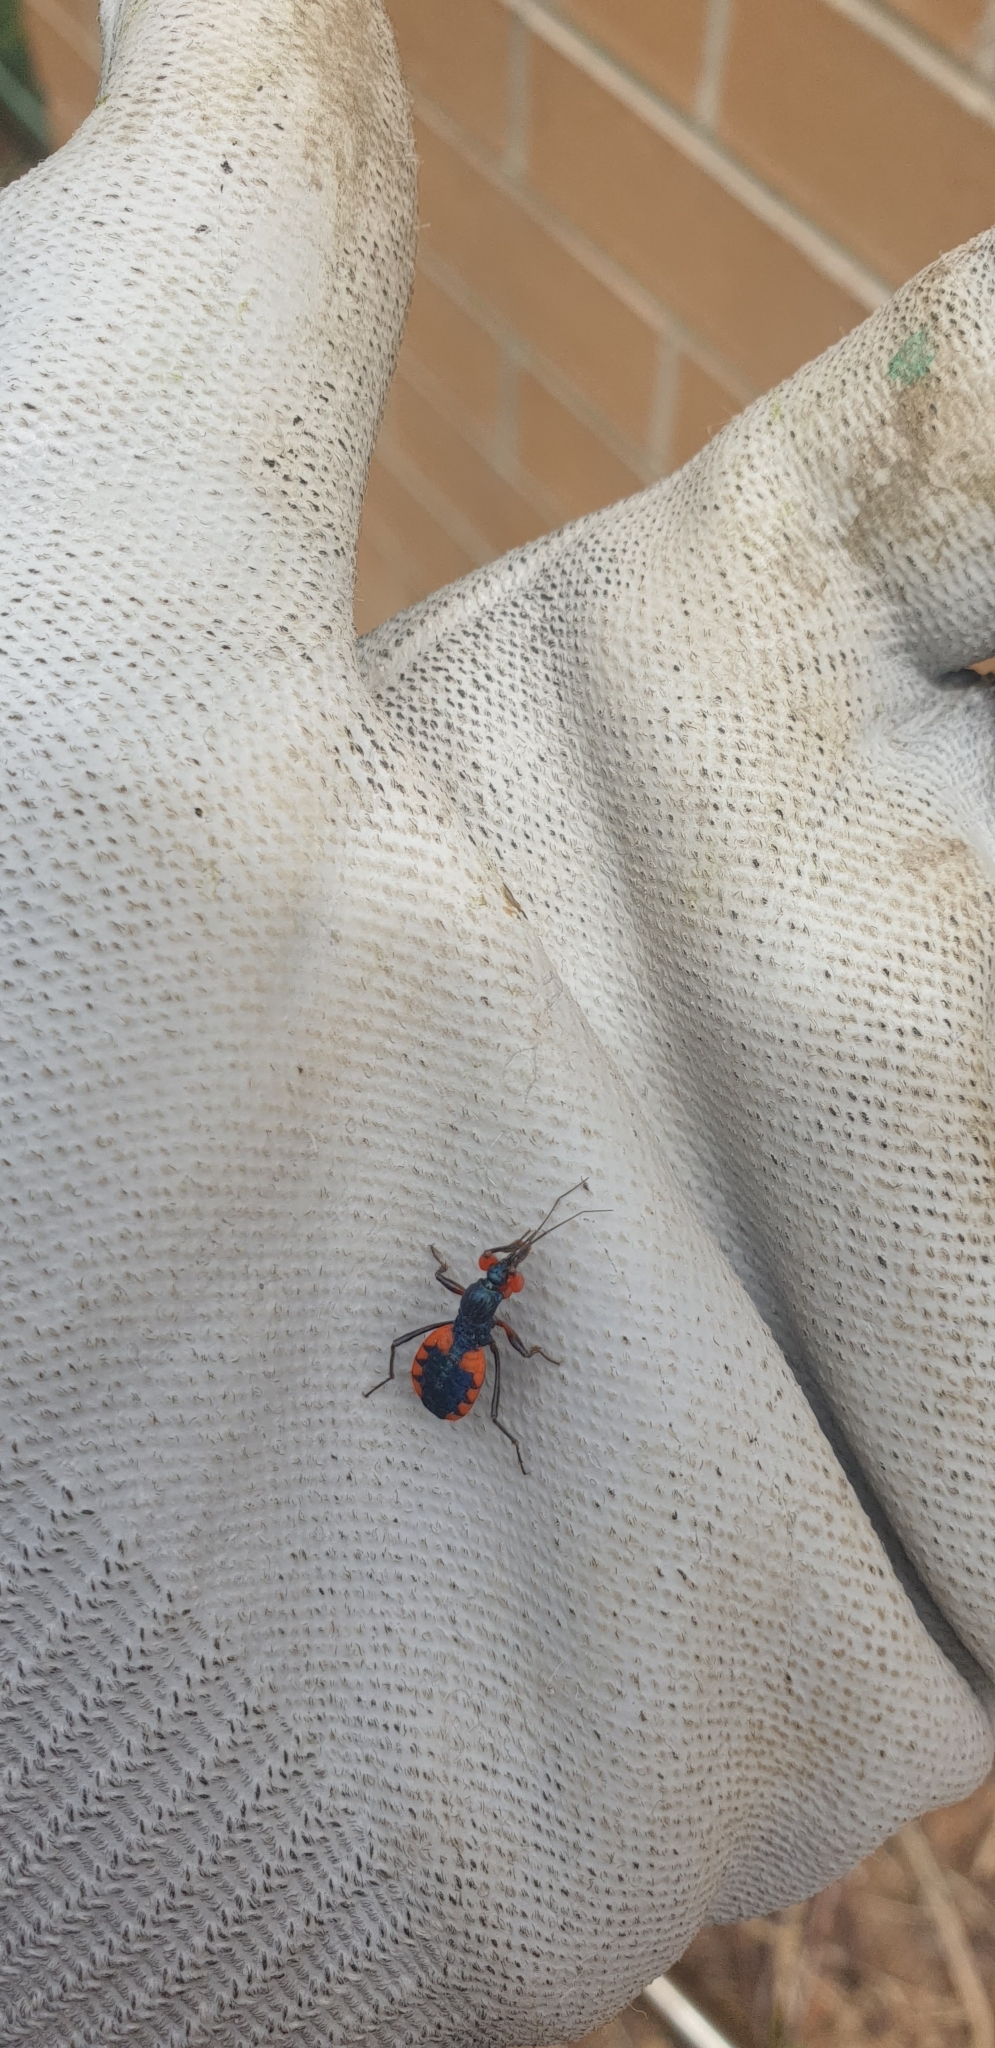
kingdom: Animalia
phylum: Arthropoda
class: Insecta
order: Hemiptera
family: Reduviidae
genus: Ectomocoris
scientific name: Ectomocoris binotatus
